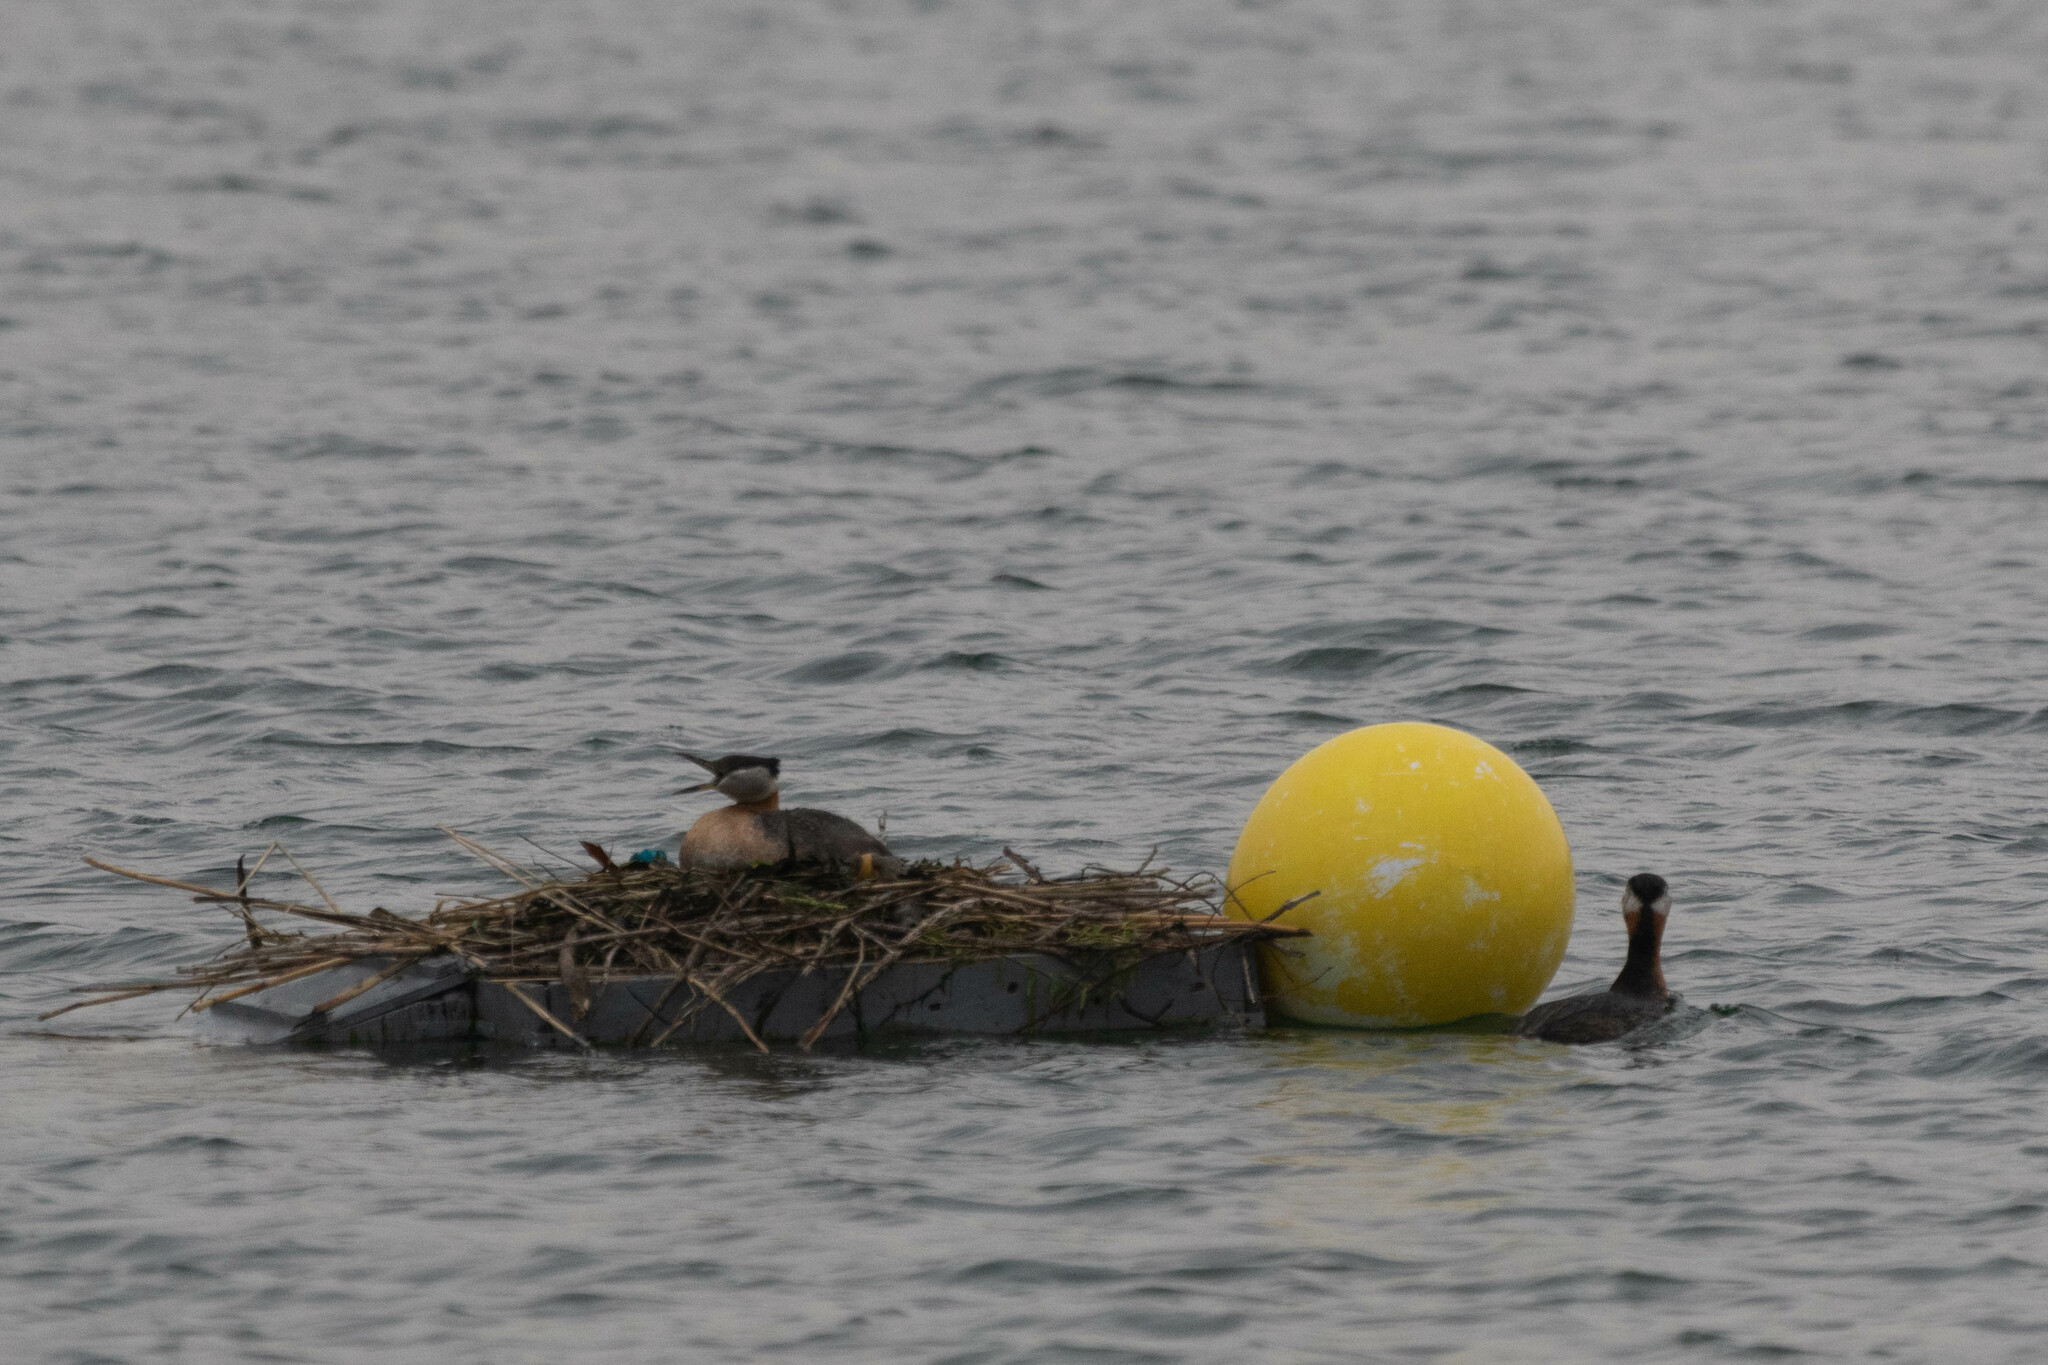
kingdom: Animalia
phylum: Chordata
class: Aves
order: Podicipediformes
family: Podicipedidae
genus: Podiceps
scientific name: Podiceps grisegena
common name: Red-necked grebe
